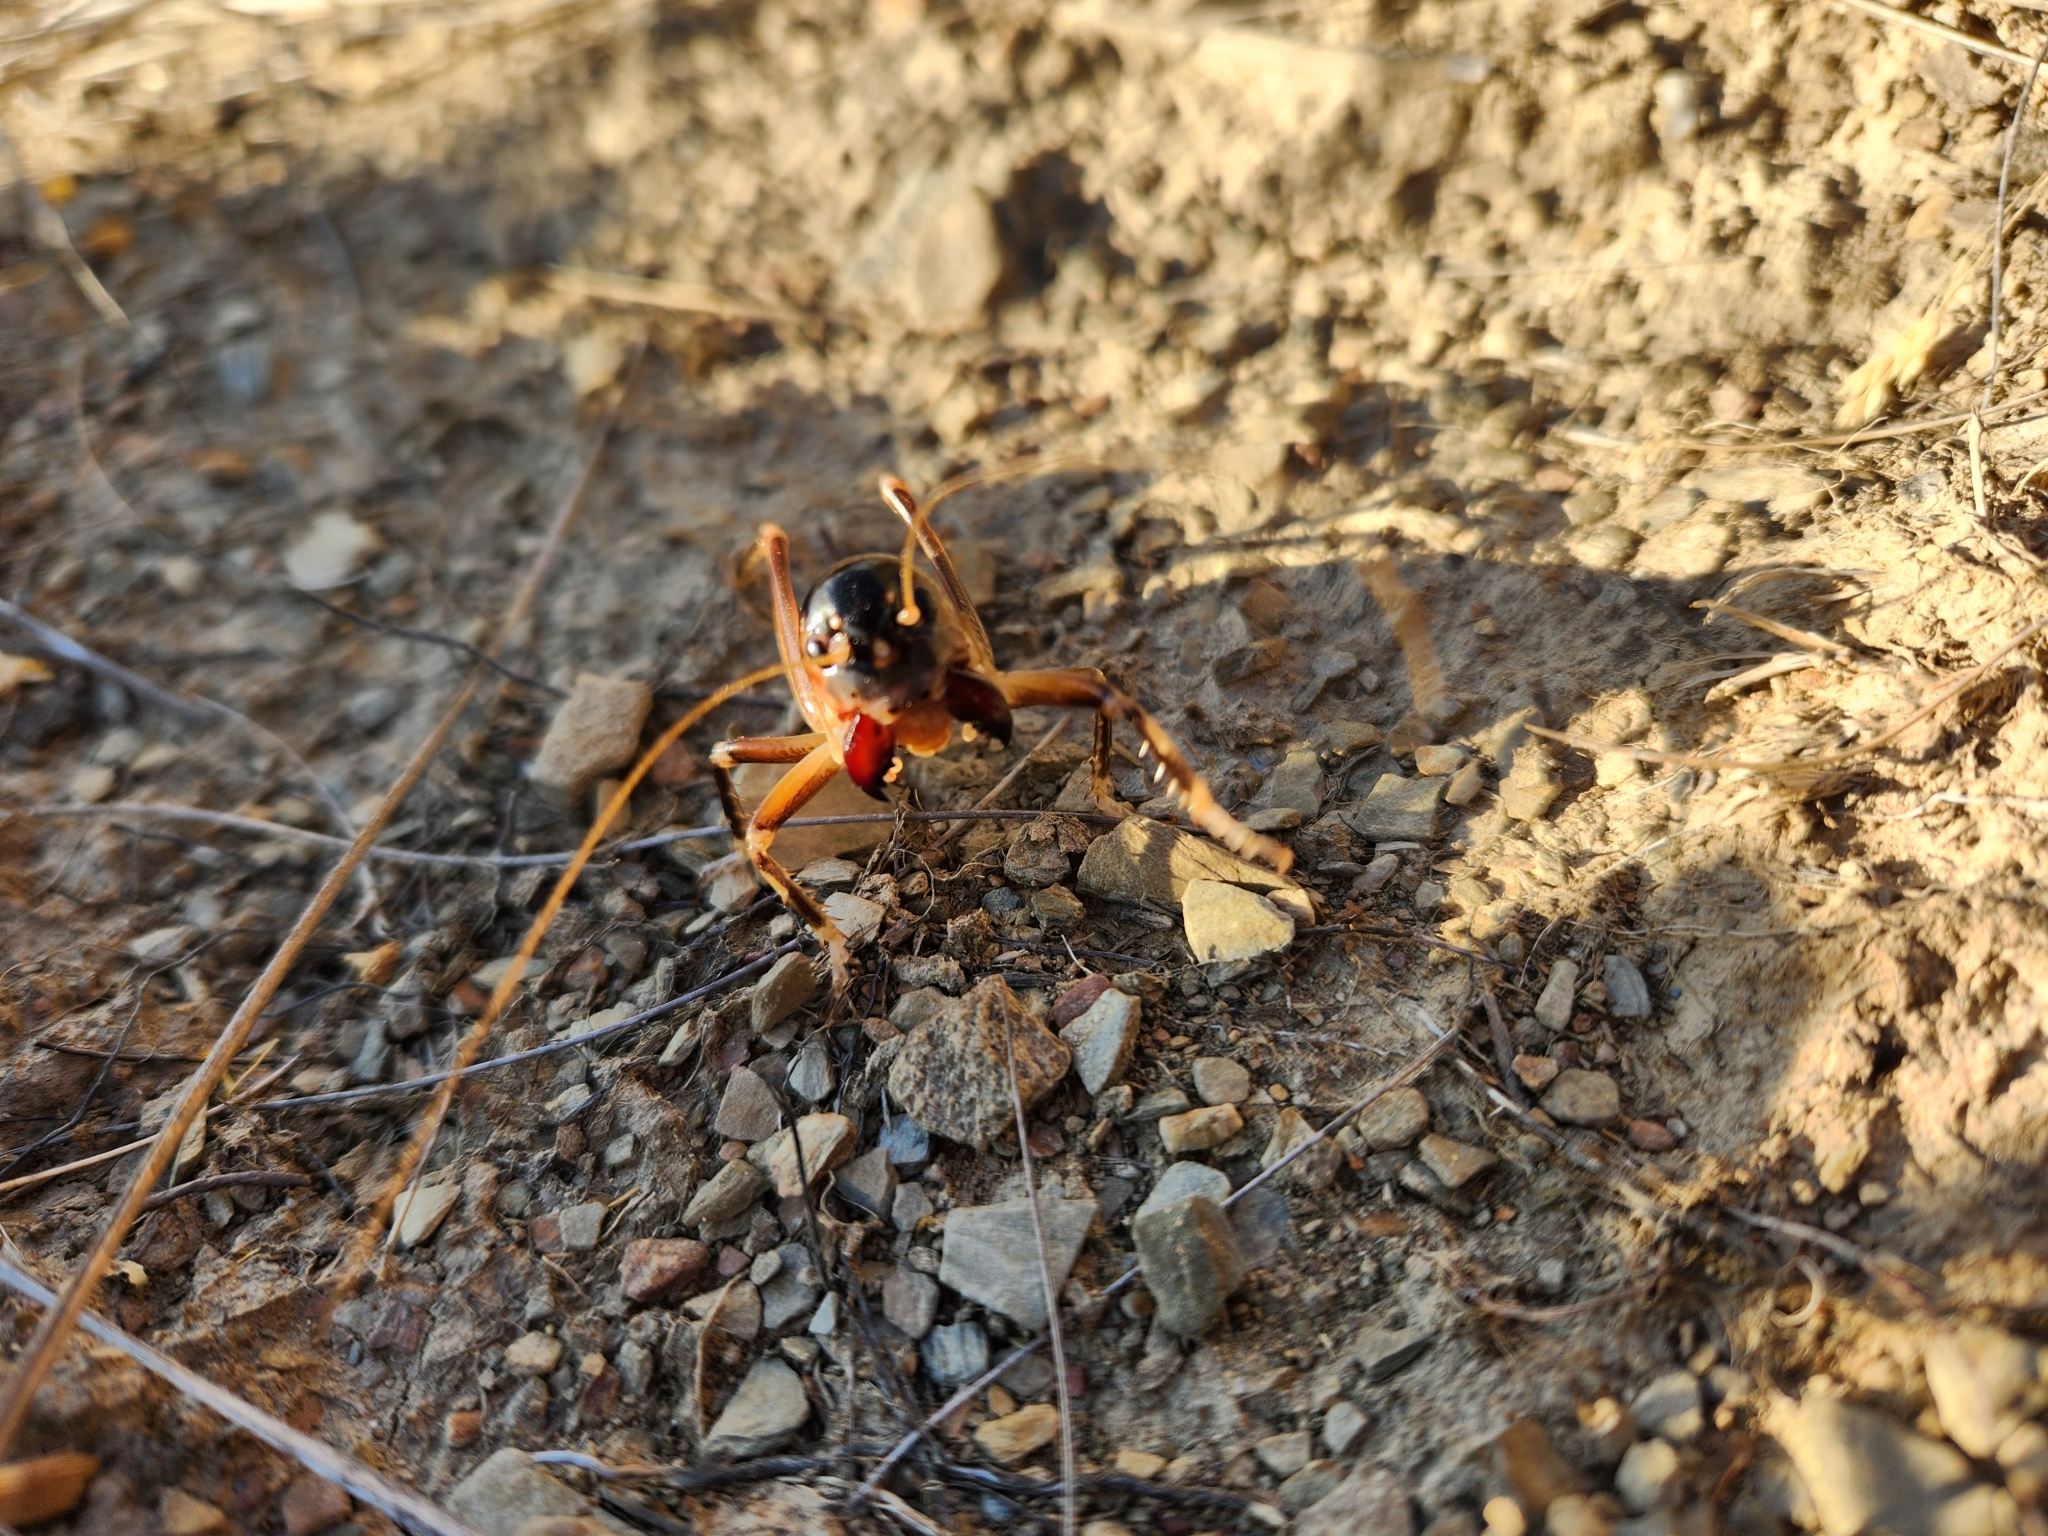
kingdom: Animalia
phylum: Arthropoda
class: Insecta
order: Orthoptera
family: Anostostomatidae
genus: Hemiandrus
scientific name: Hemiandrus focalis
